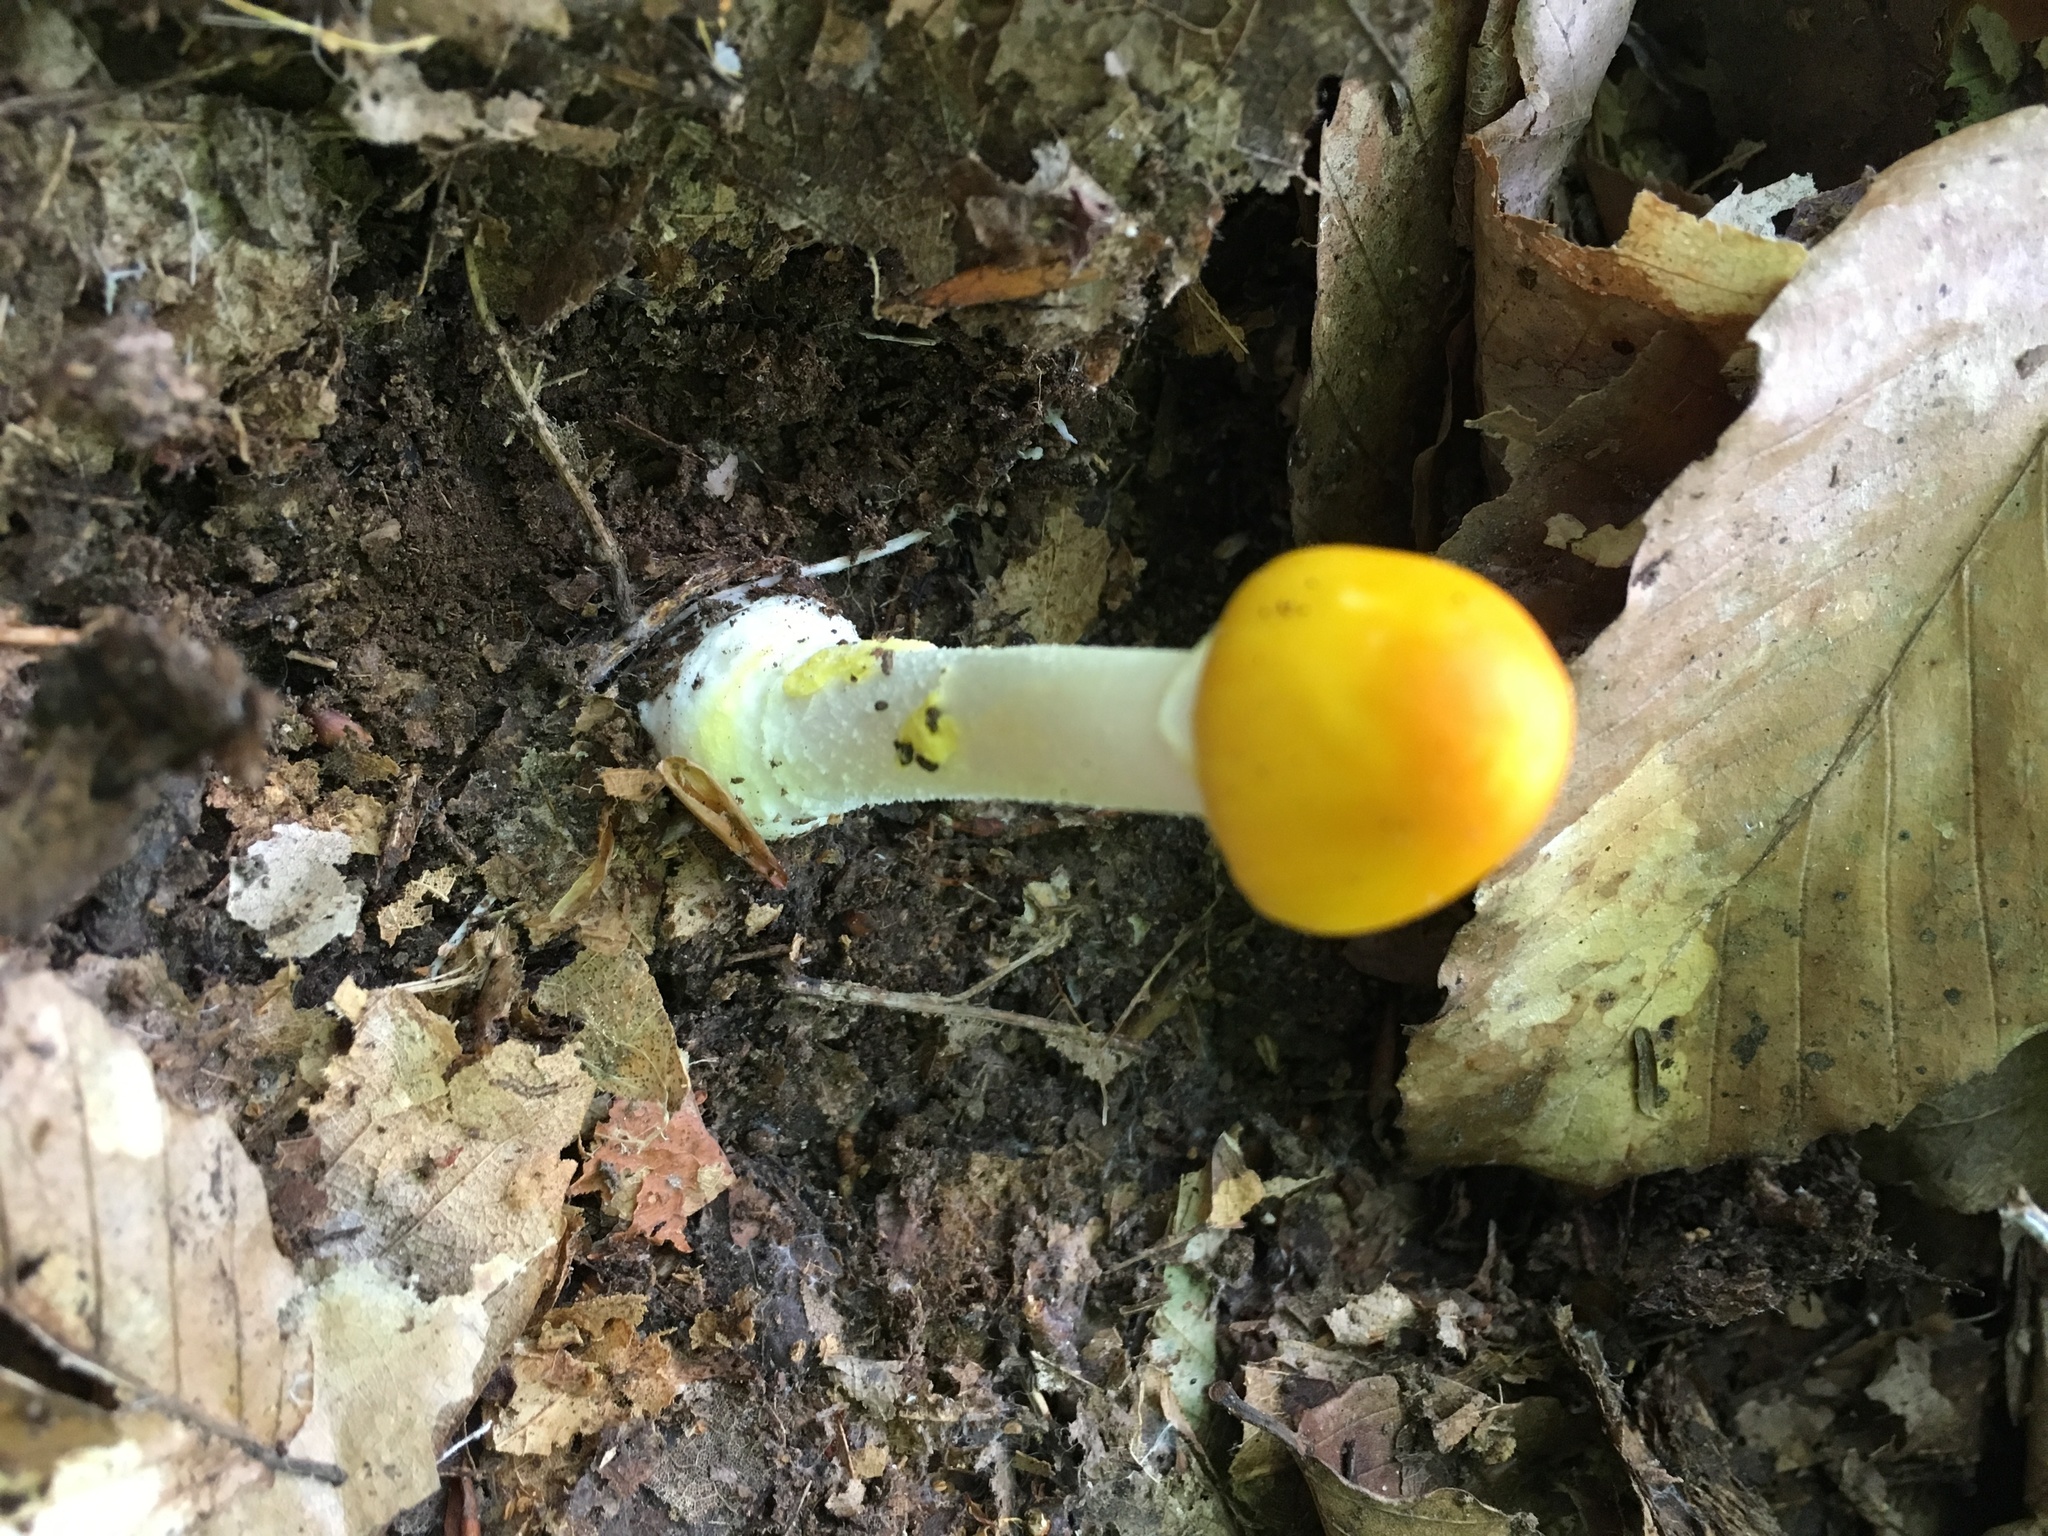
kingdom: Fungi
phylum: Basidiomycota
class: Agaricomycetes
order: Agaricales
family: Amanitaceae
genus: Amanita
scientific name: Amanita flavoconia
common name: Yellow patches
